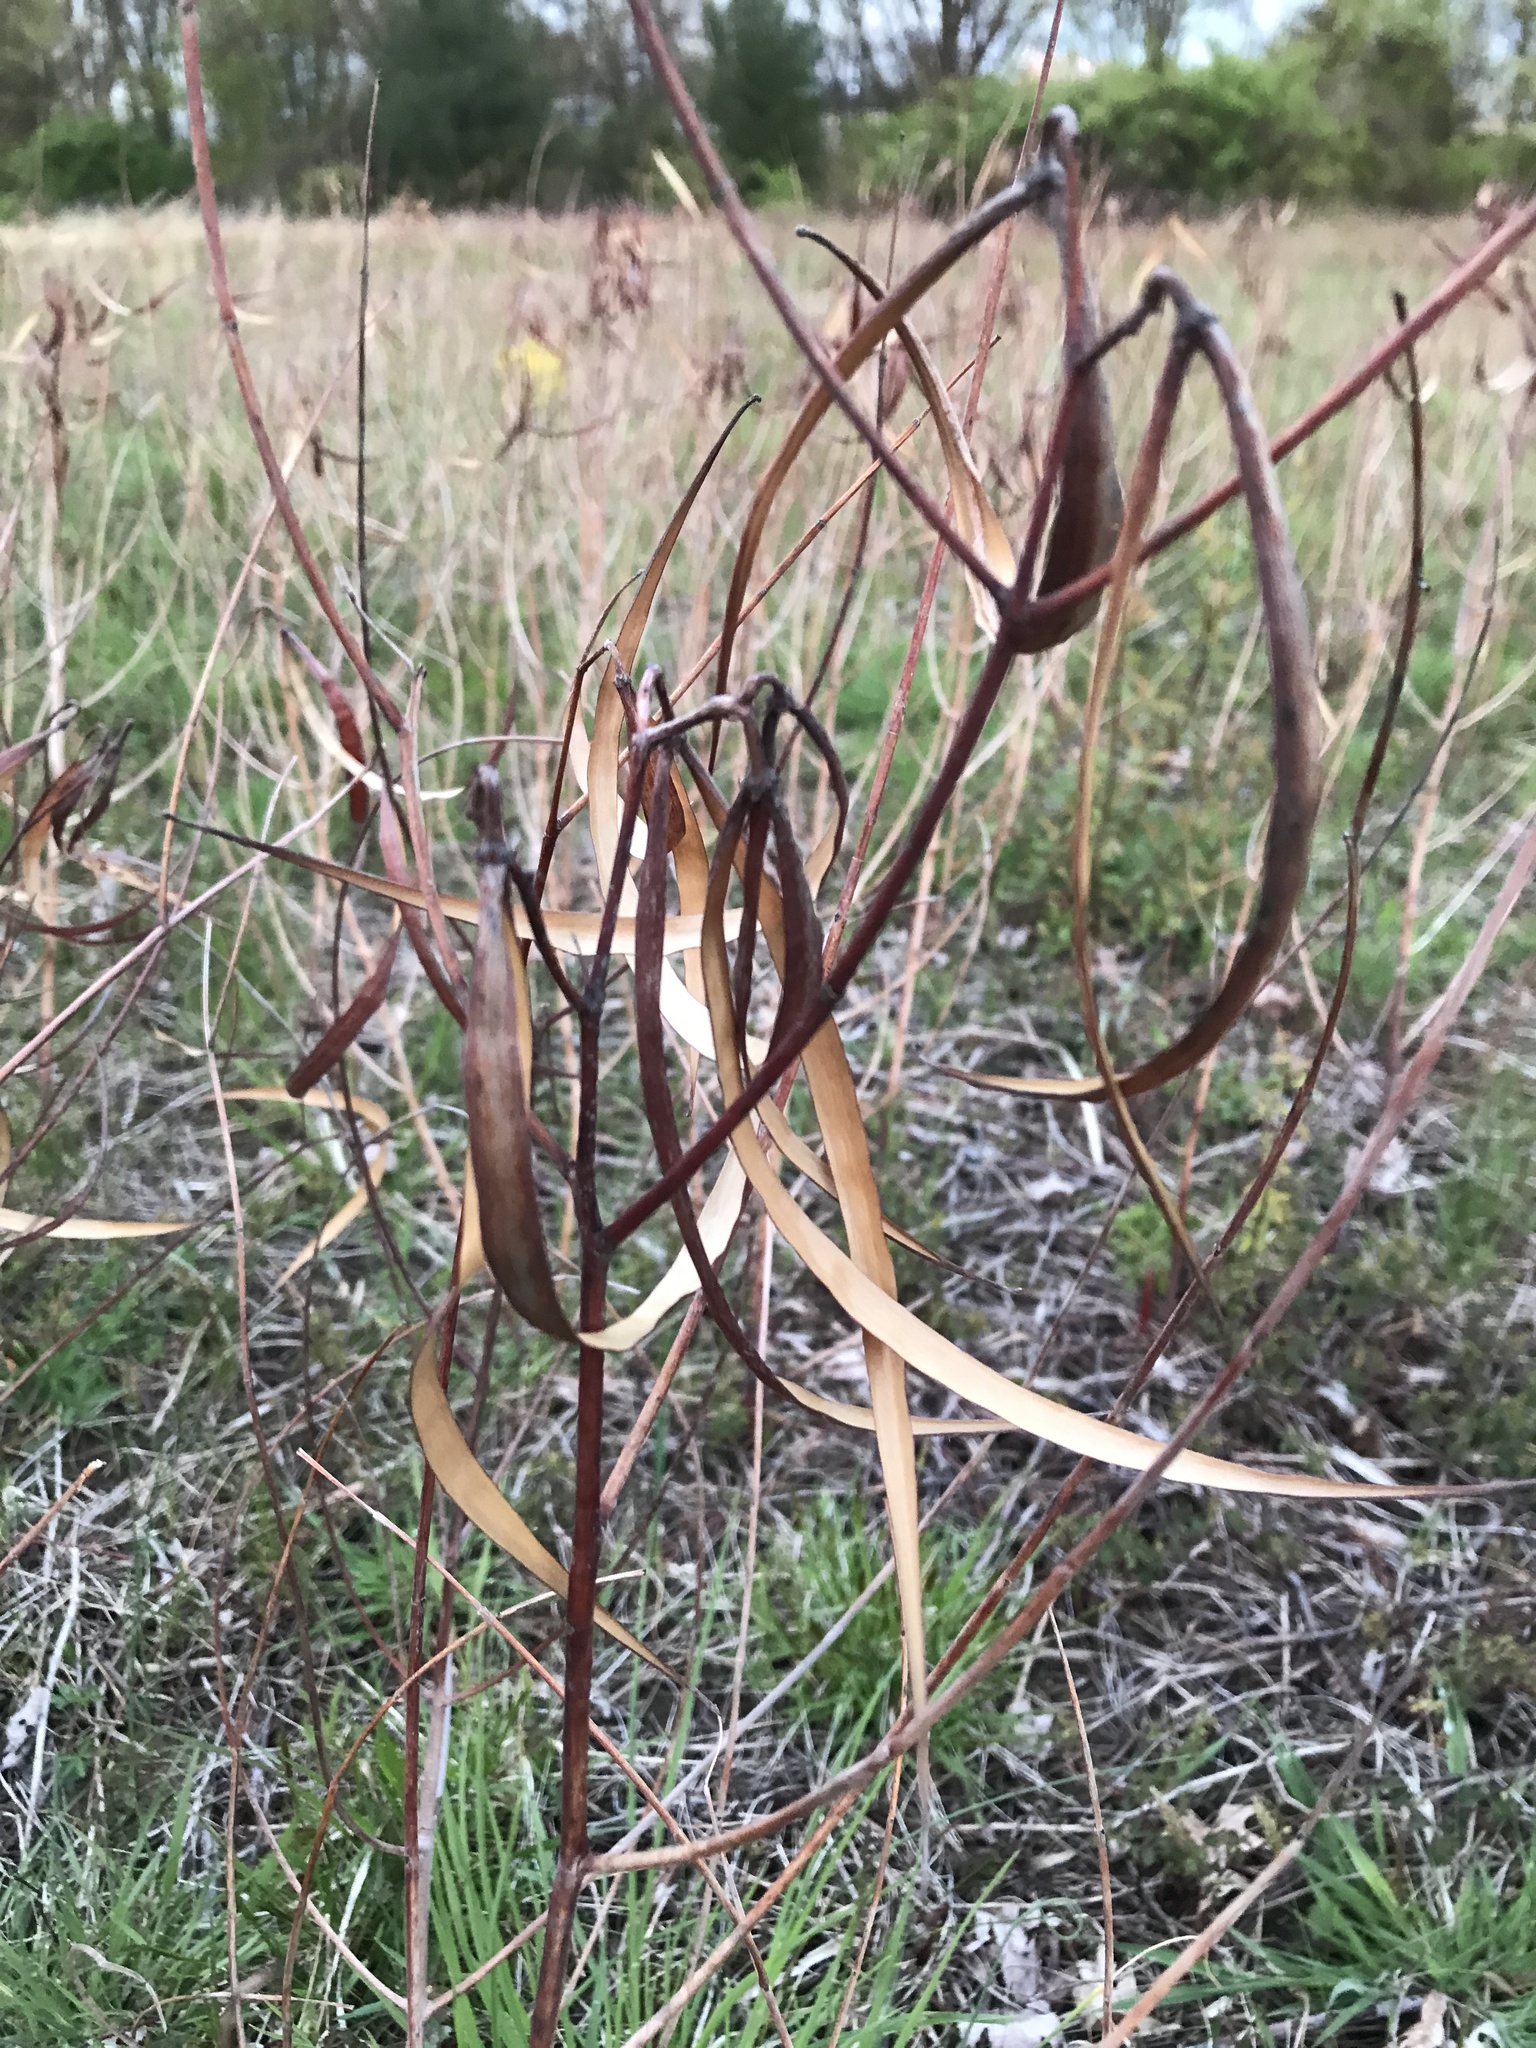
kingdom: Plantae
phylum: Tracheophyta
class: Magnoliopsida
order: Gentianales
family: Apocynaceae
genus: Apocynum
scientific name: Apocynum cannabinum
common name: Hemp dogbane
